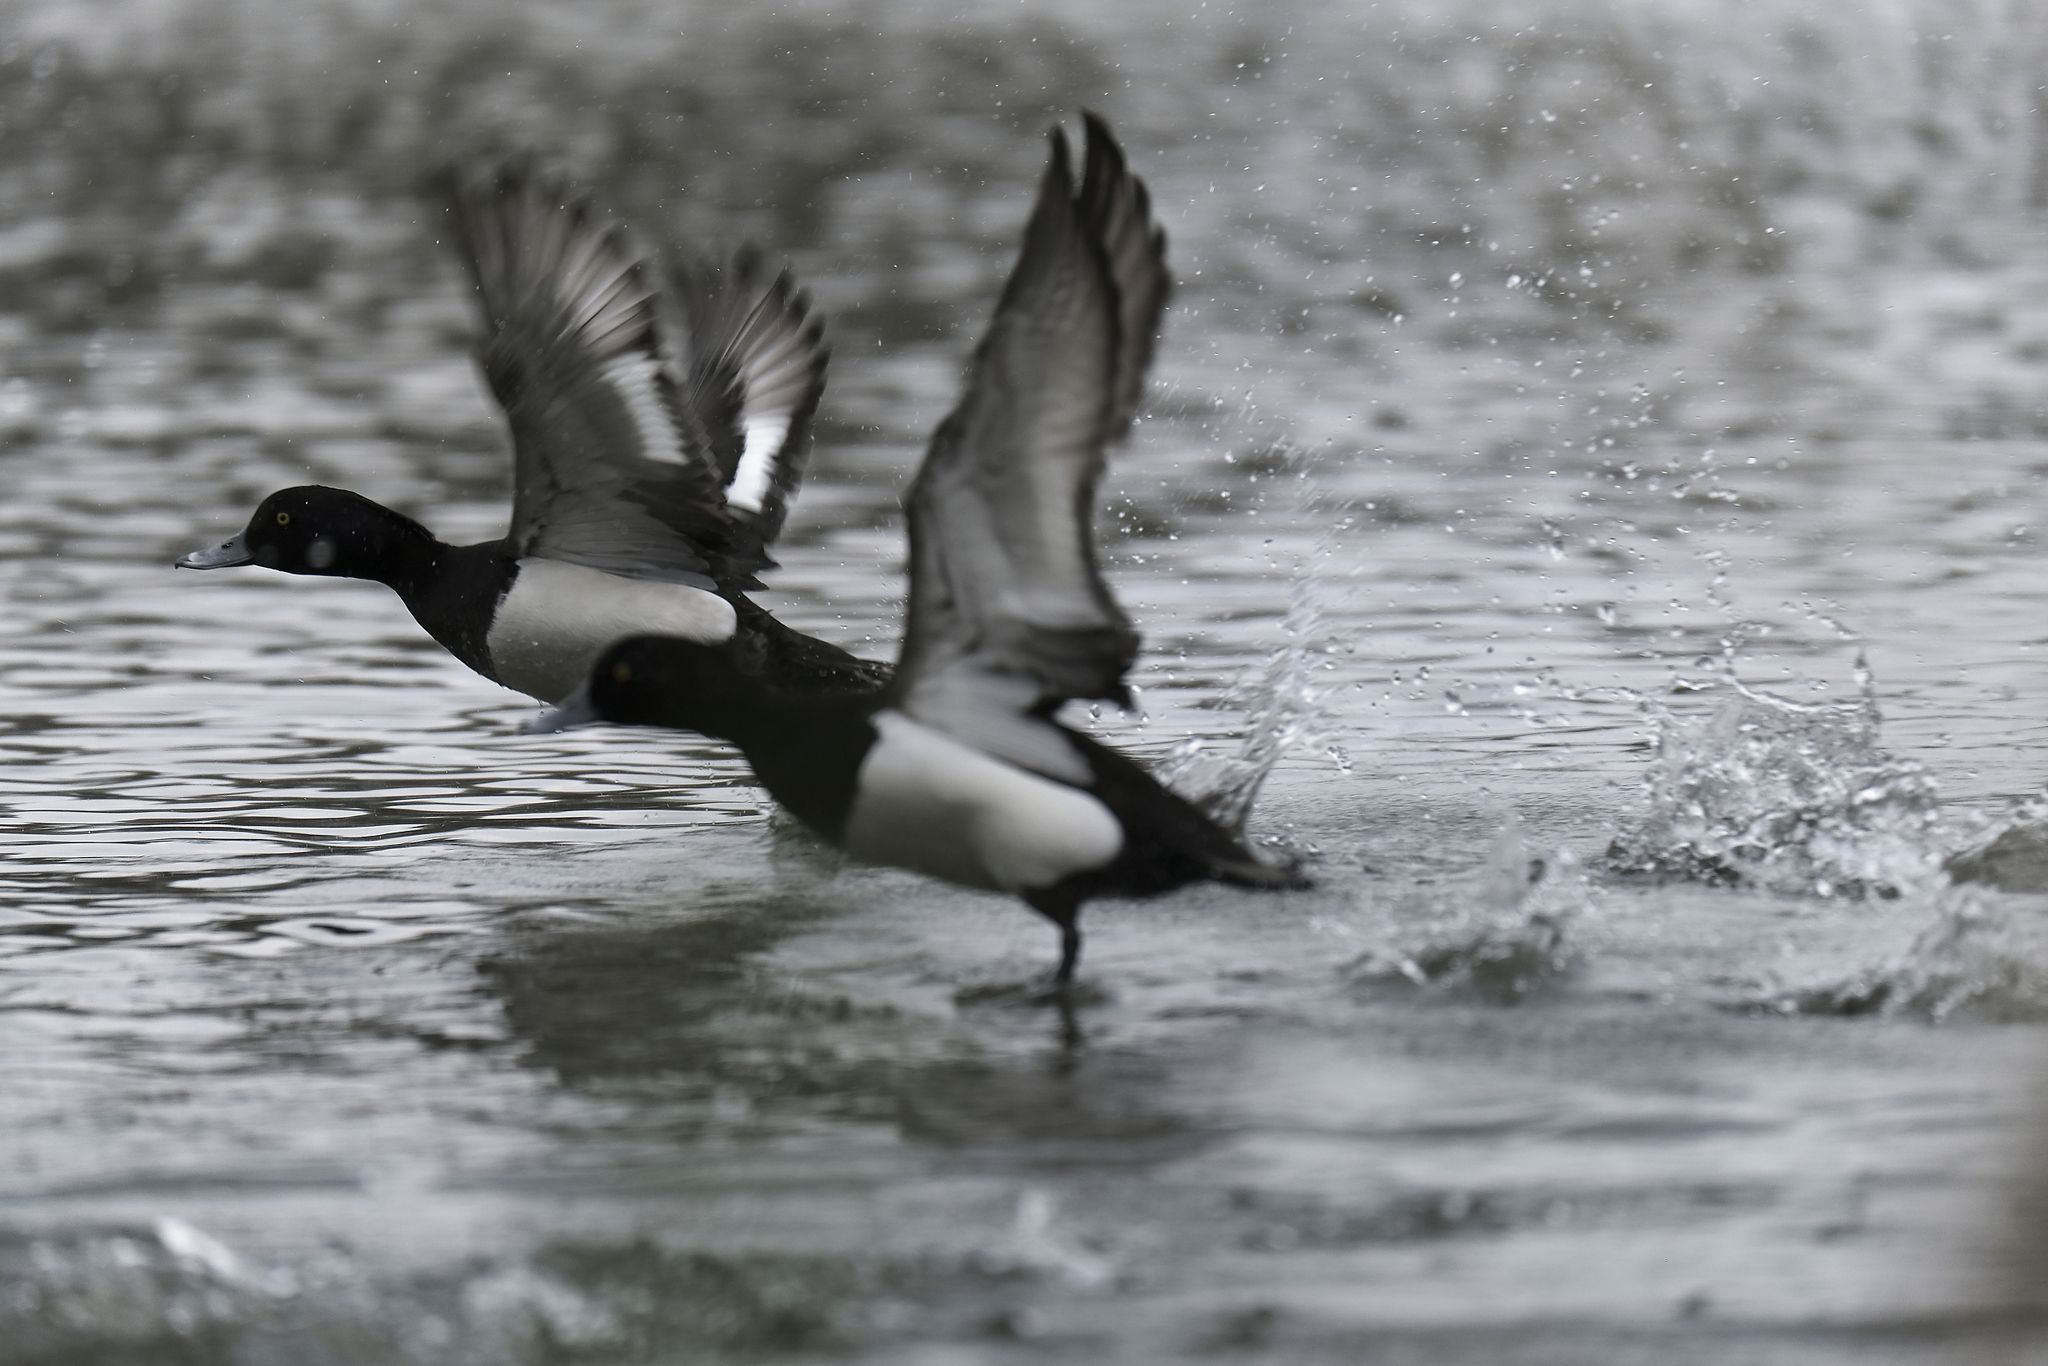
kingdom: Animalia
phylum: Chordata
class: Aves
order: Anseriformes
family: Anatidae
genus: Aythya
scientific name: Aythya fuligula
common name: Tufted duck
